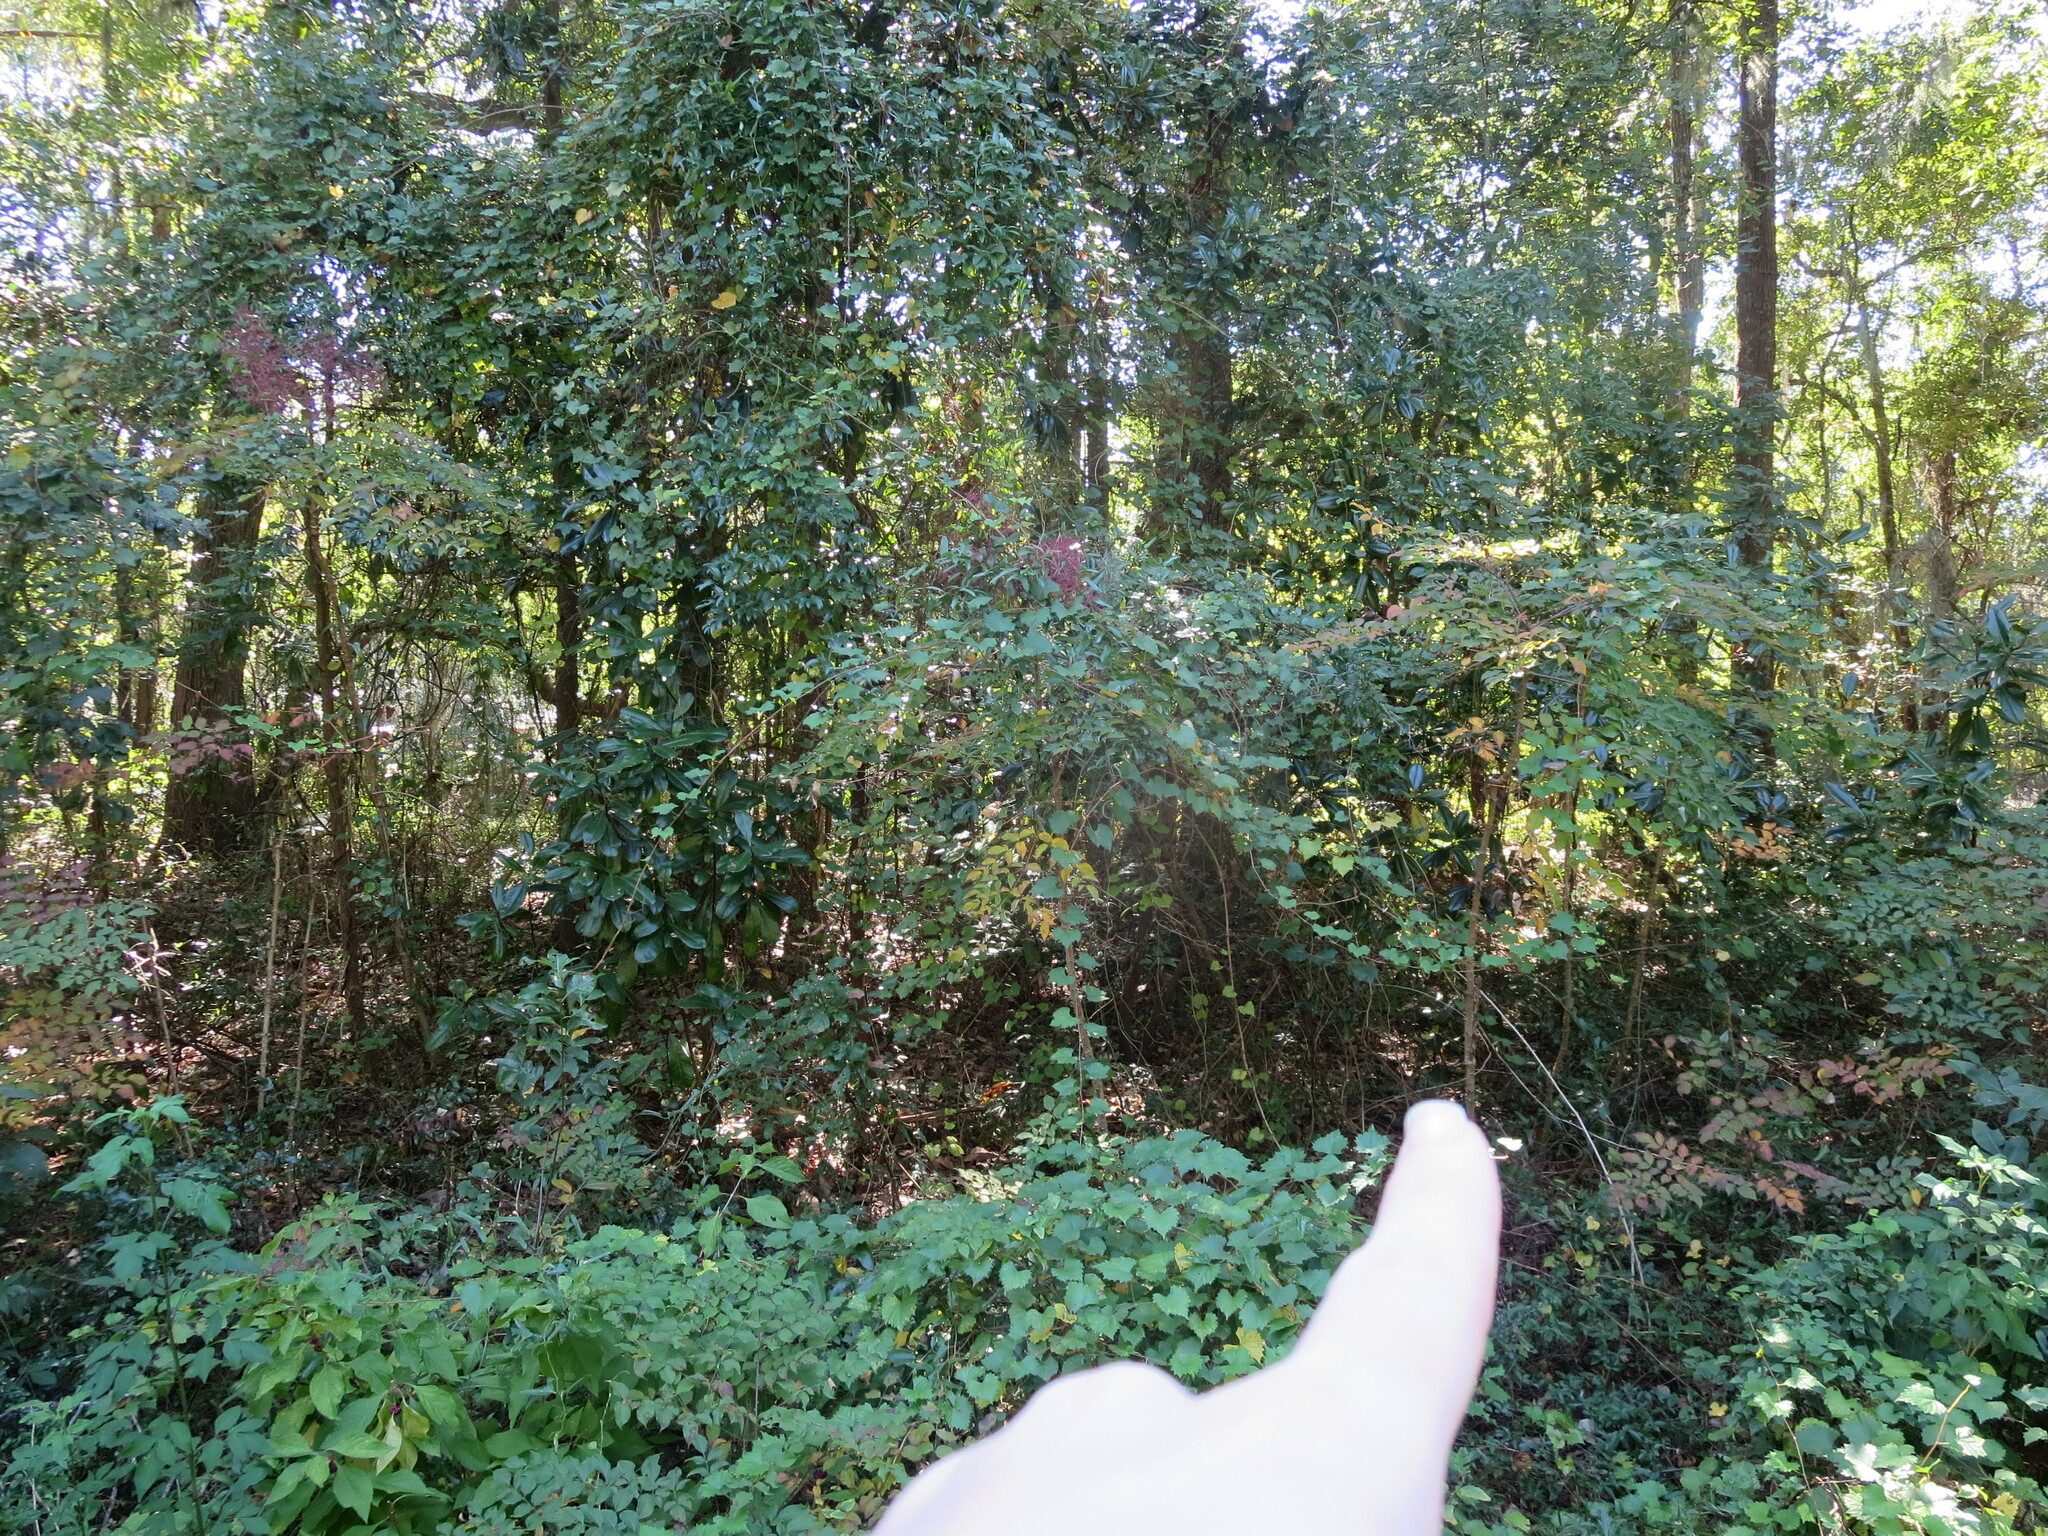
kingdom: Plantae
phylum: Tracheophyta
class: Magnoliopsida
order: Apiales
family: Araliaceae
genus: Aralia
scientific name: Aralia spinosa
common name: Hercules'-club
